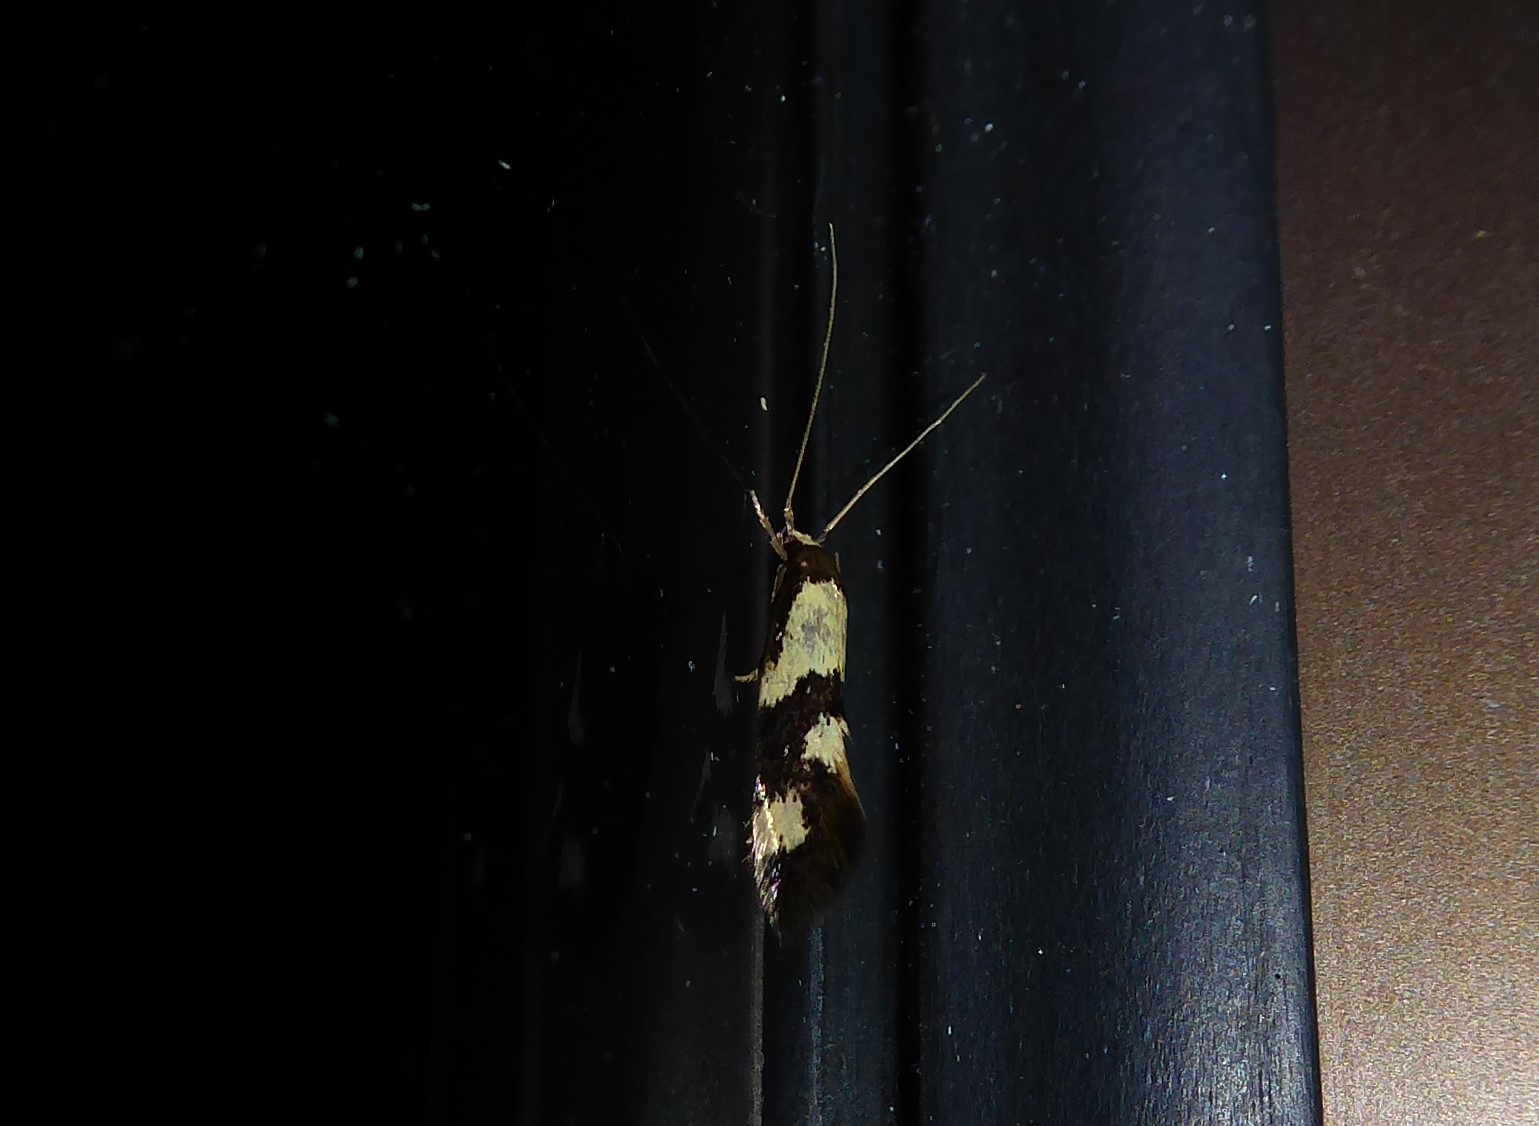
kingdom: Animalia
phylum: Arthropoda
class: Insecta
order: Lepidoptera
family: Tineidae
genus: Opogona
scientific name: Opogona comptella
